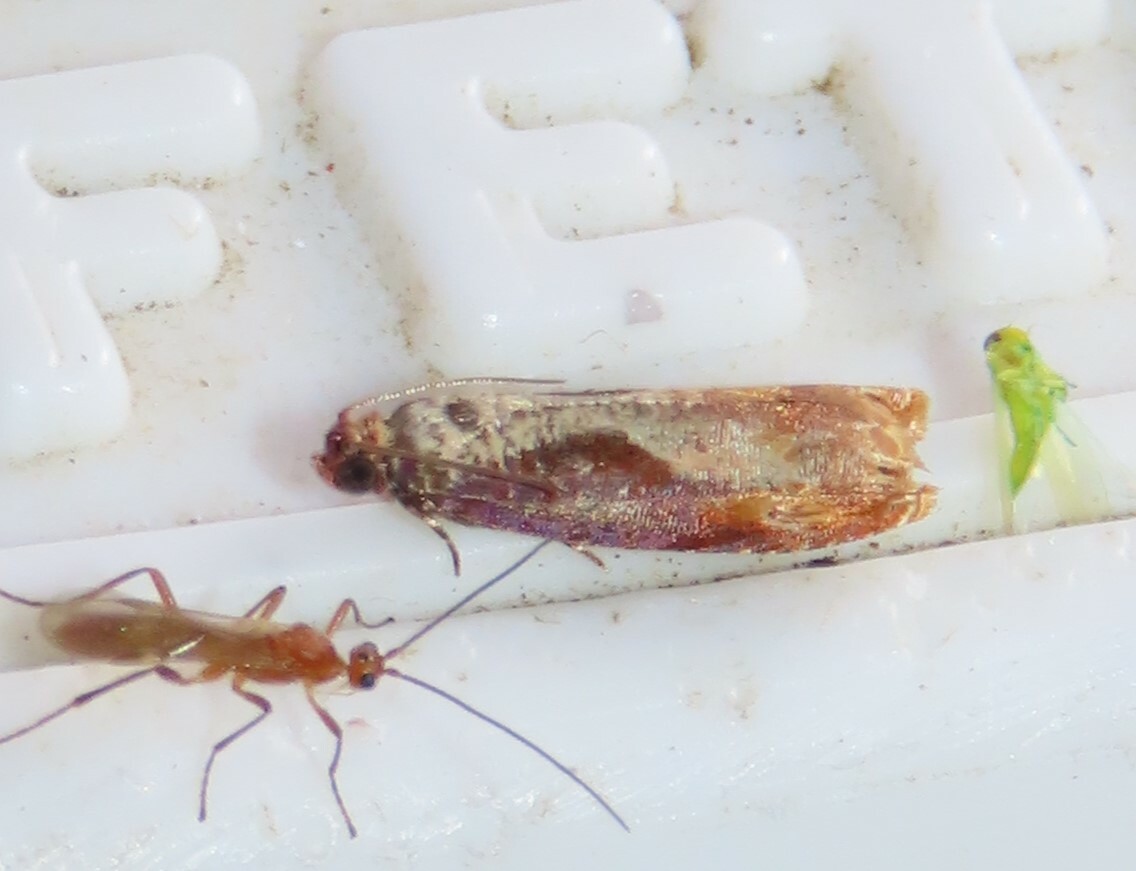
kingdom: Animalia
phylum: Arthropoda
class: Insecta
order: Lepidoptera
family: Tortricidae
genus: Episimus
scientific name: Episimus tyrius
